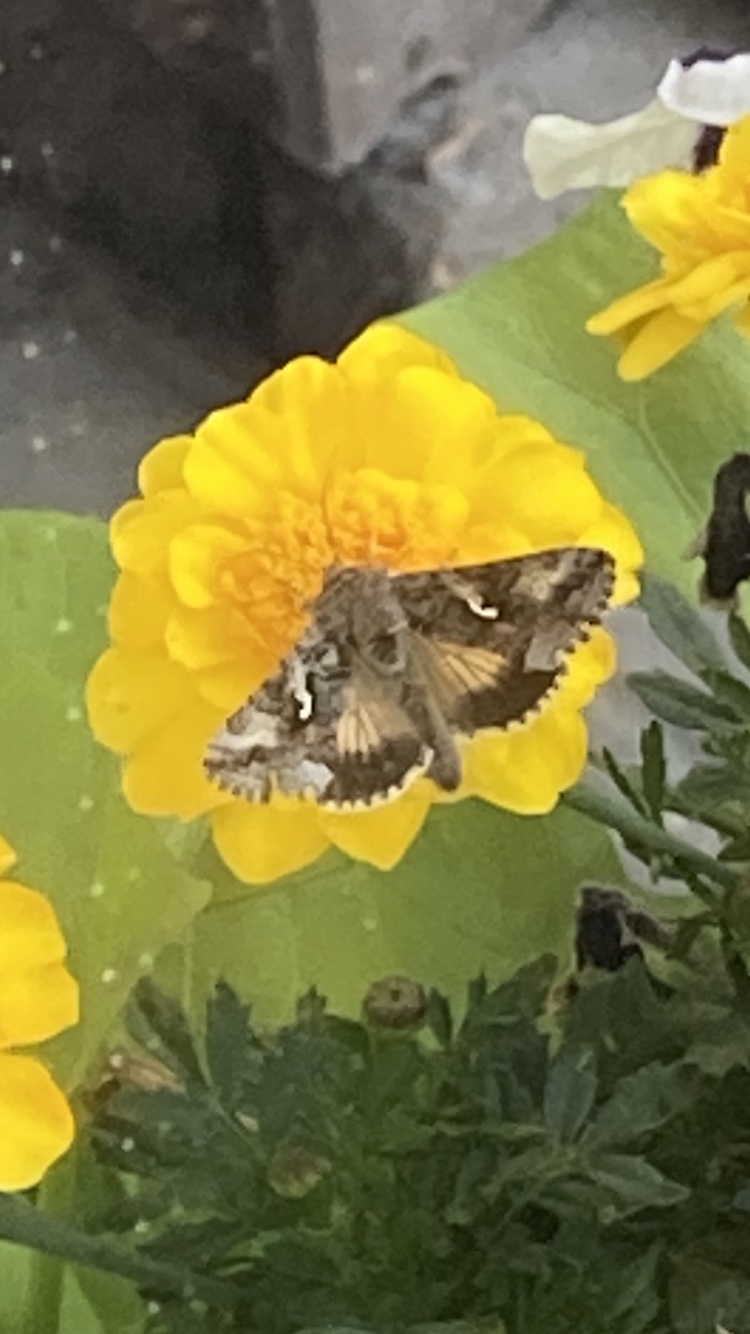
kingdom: Animalia
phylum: Arthropoda
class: Insecta
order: Lepidoptera
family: Noctuidae
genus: Autographa
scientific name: Autographa californica
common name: Alfalfa looper
